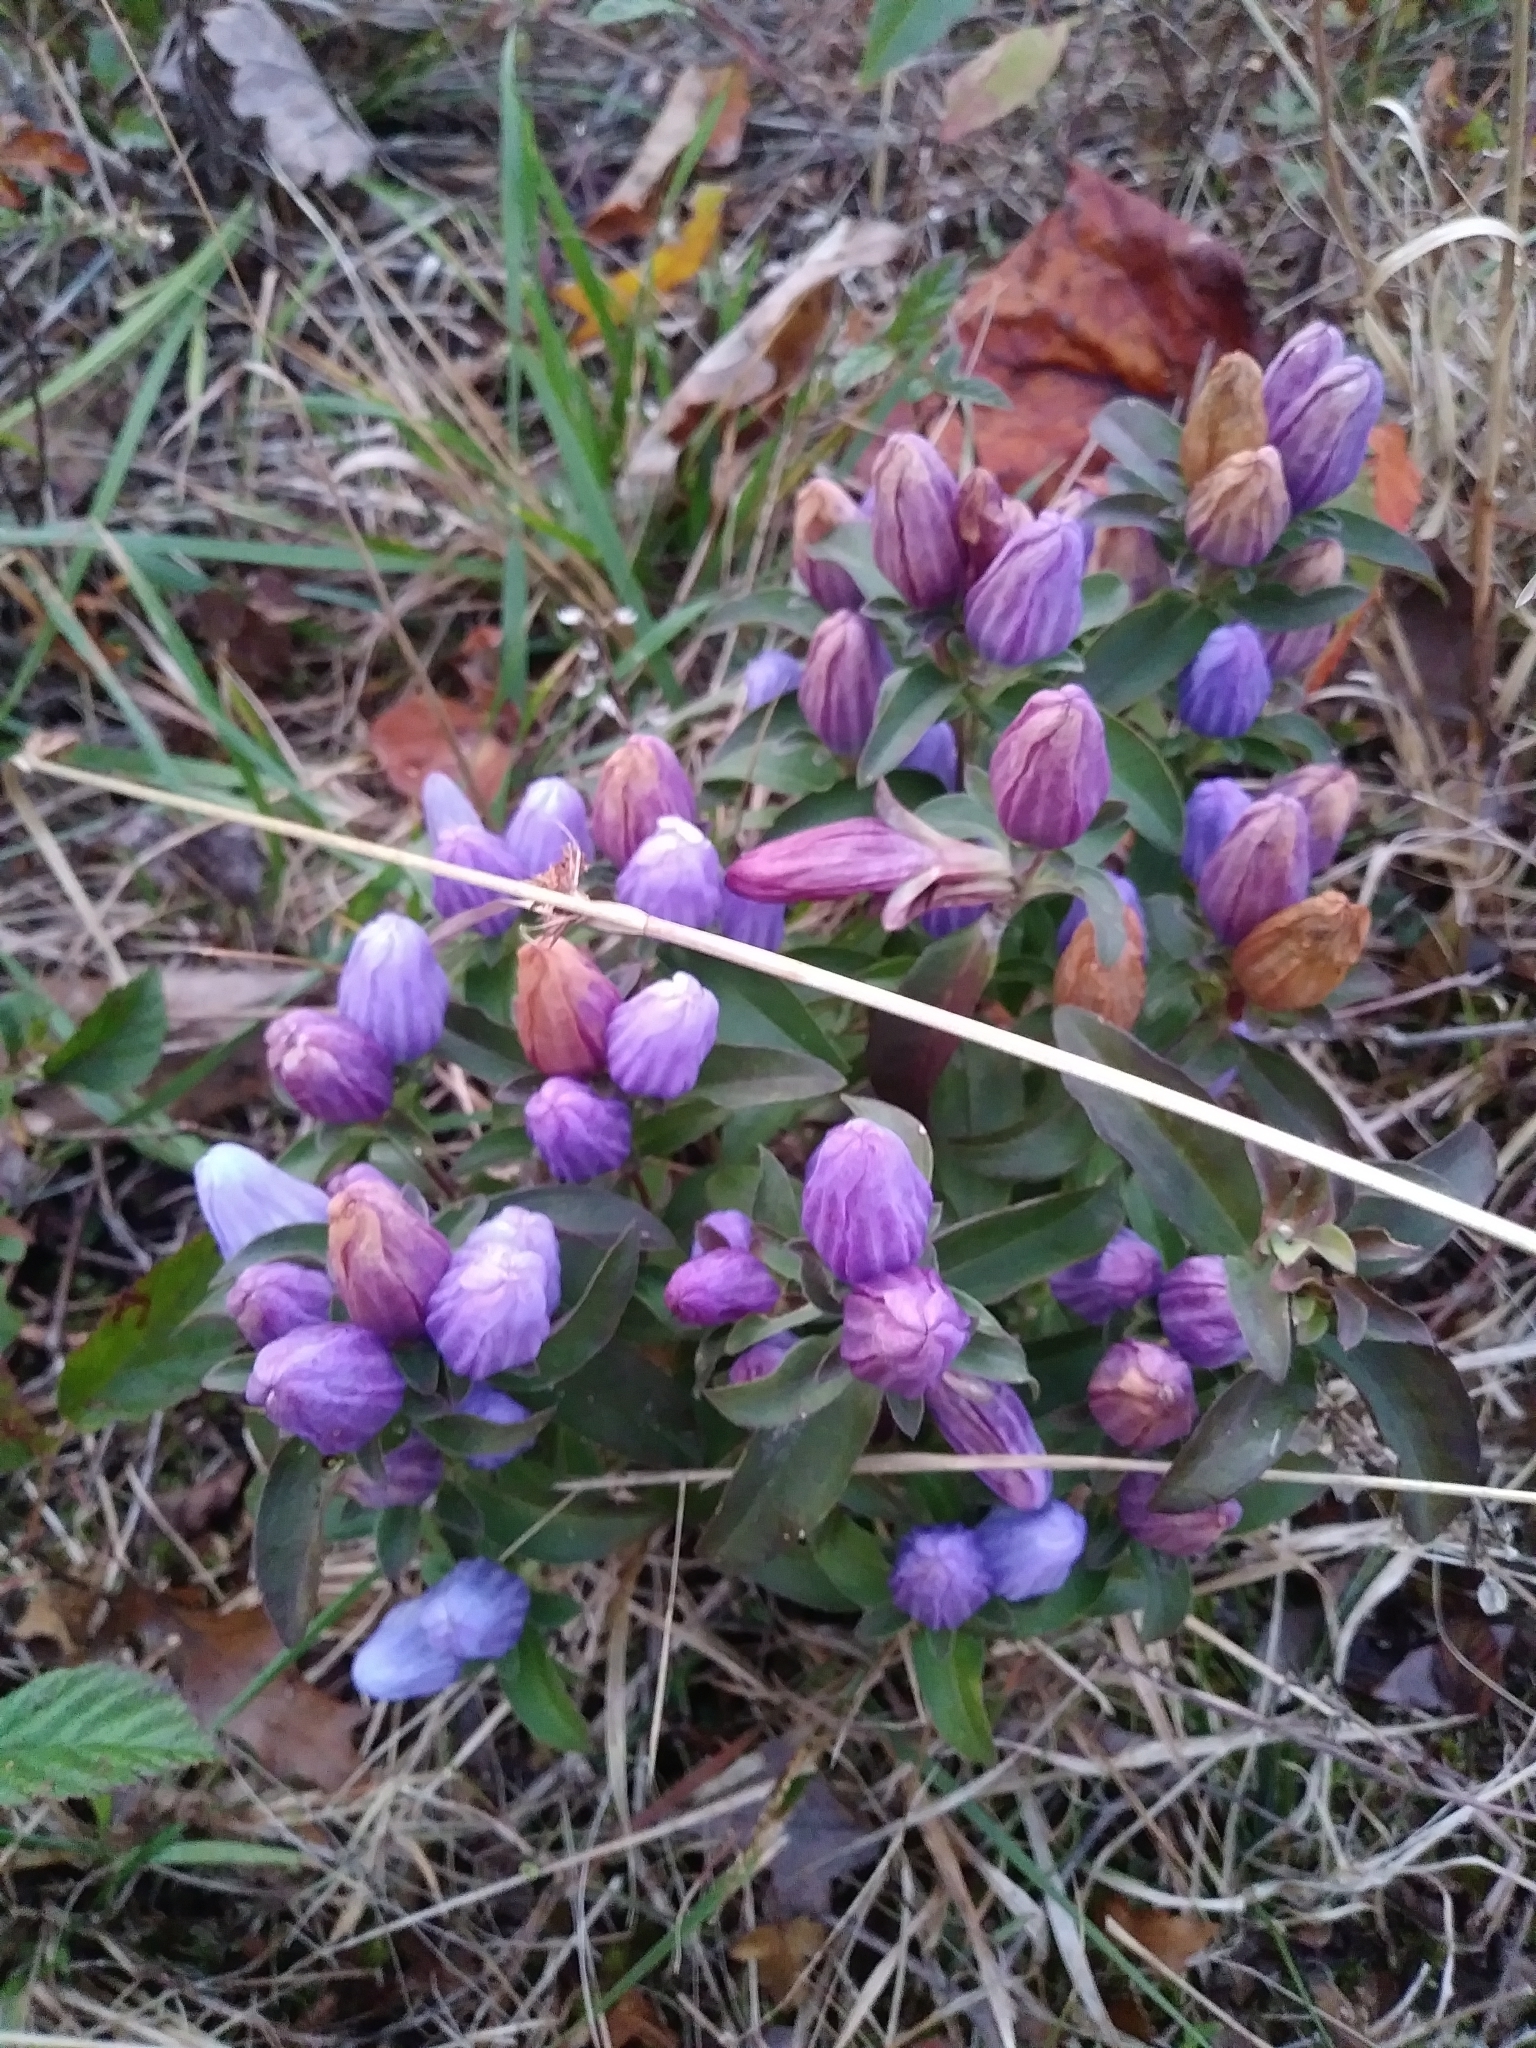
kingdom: Plantae
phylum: Tracheophyta
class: Magnoliopsida
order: Gentianales
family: Gentianaceae
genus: Gentiana
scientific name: Gentiana saponaria
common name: Soapwort gentian
